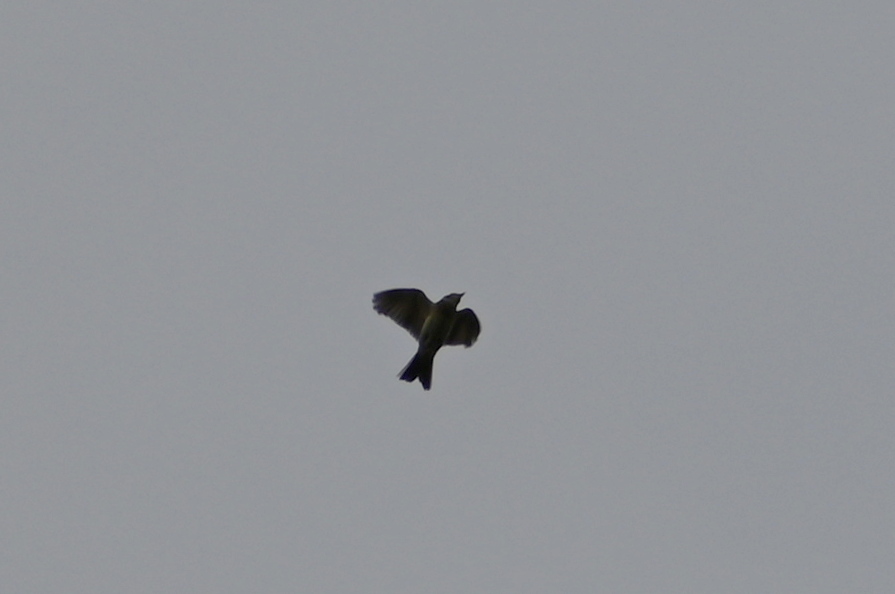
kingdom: Animalia
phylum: Chordata
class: Aves
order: Passeriformes
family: Alaudidae
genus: Alauda
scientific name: Alauda arvensis
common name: Eurasian skylark
